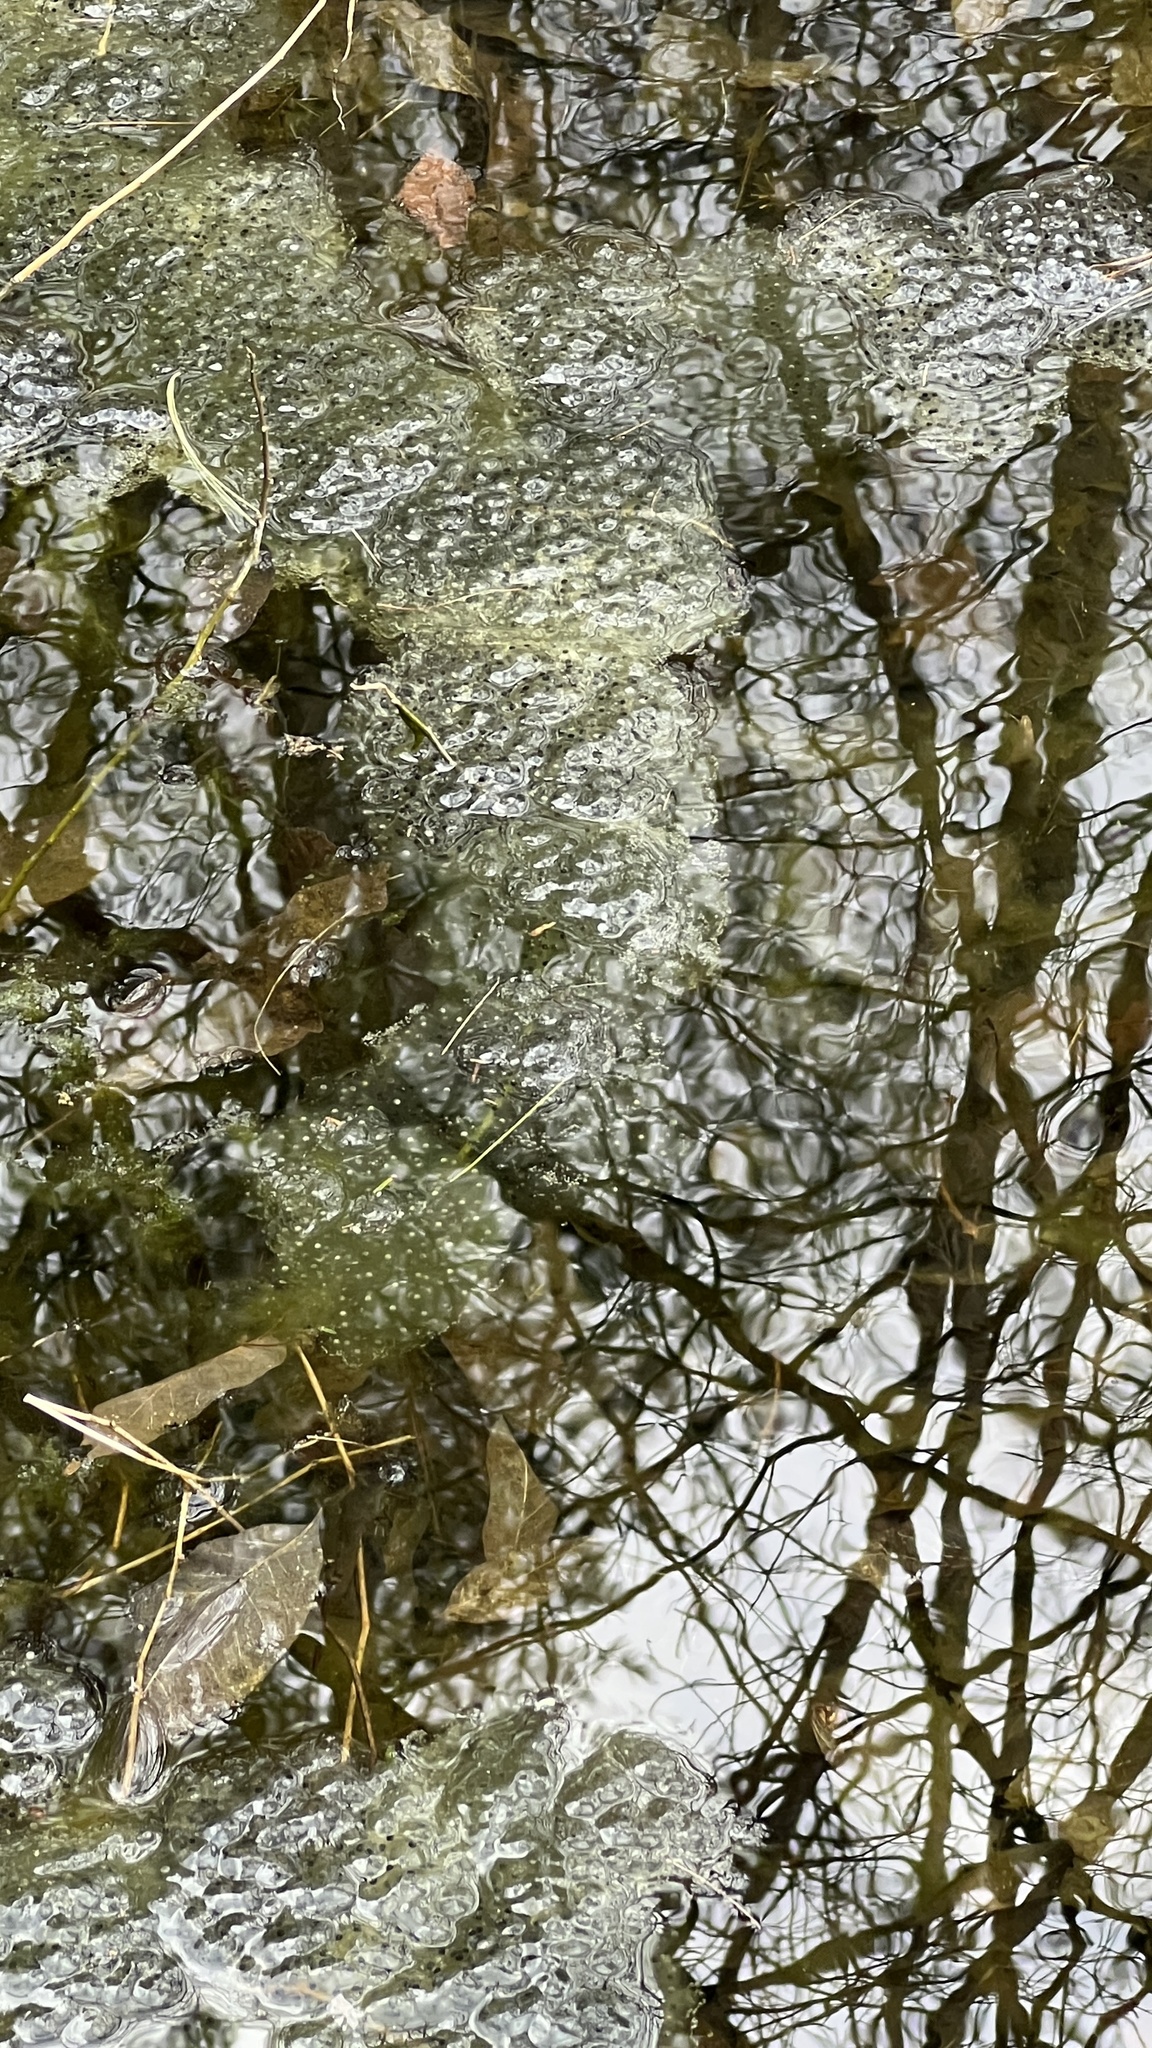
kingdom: Animalia
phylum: Chordata
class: Amphibia
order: Anura
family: Ranidae
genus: Lithobates
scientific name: Lithobates sylvaticus
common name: Wood frog
